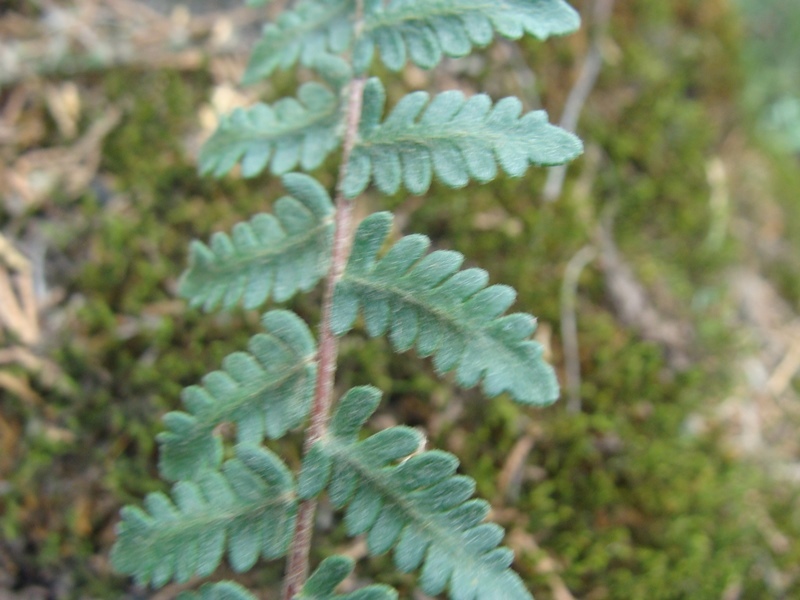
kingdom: Plantae
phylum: Tracheophyta
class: Polypodiopsida
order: Polypodiales
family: Pteridaceae
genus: Myriopteris
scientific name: Myriopteris aurea
